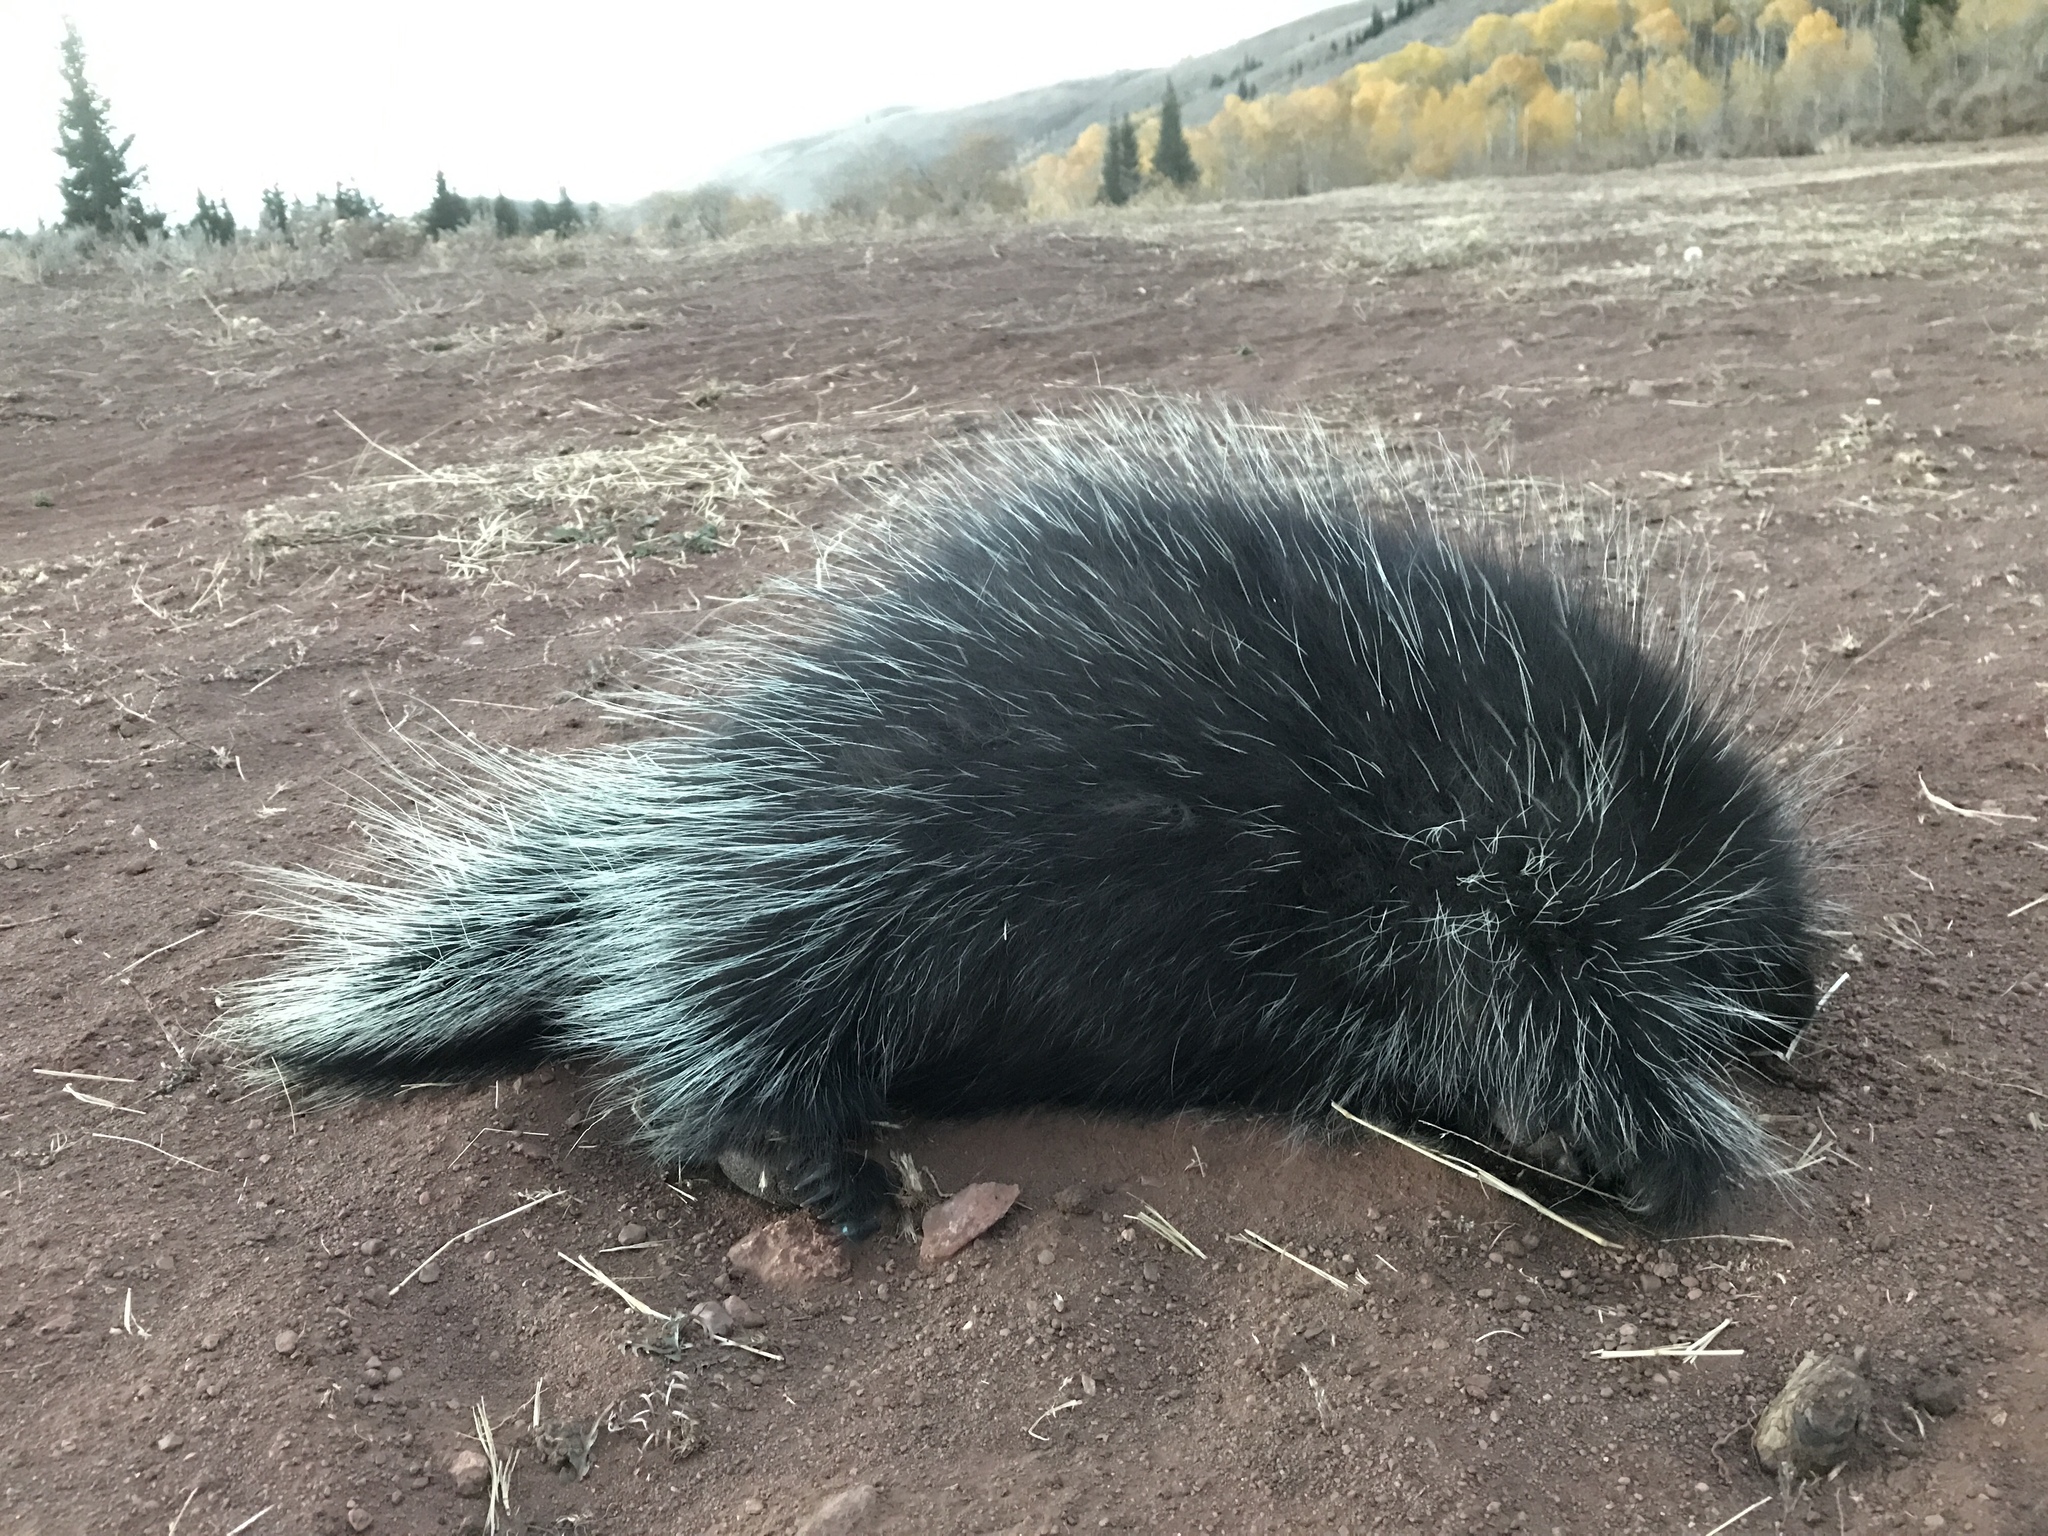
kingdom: Animalia
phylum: Chordata
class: Mammalia
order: Rodentia
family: Erethizontidae
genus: Erethizon
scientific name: Erethizon dorsatus
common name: North american porcupine
